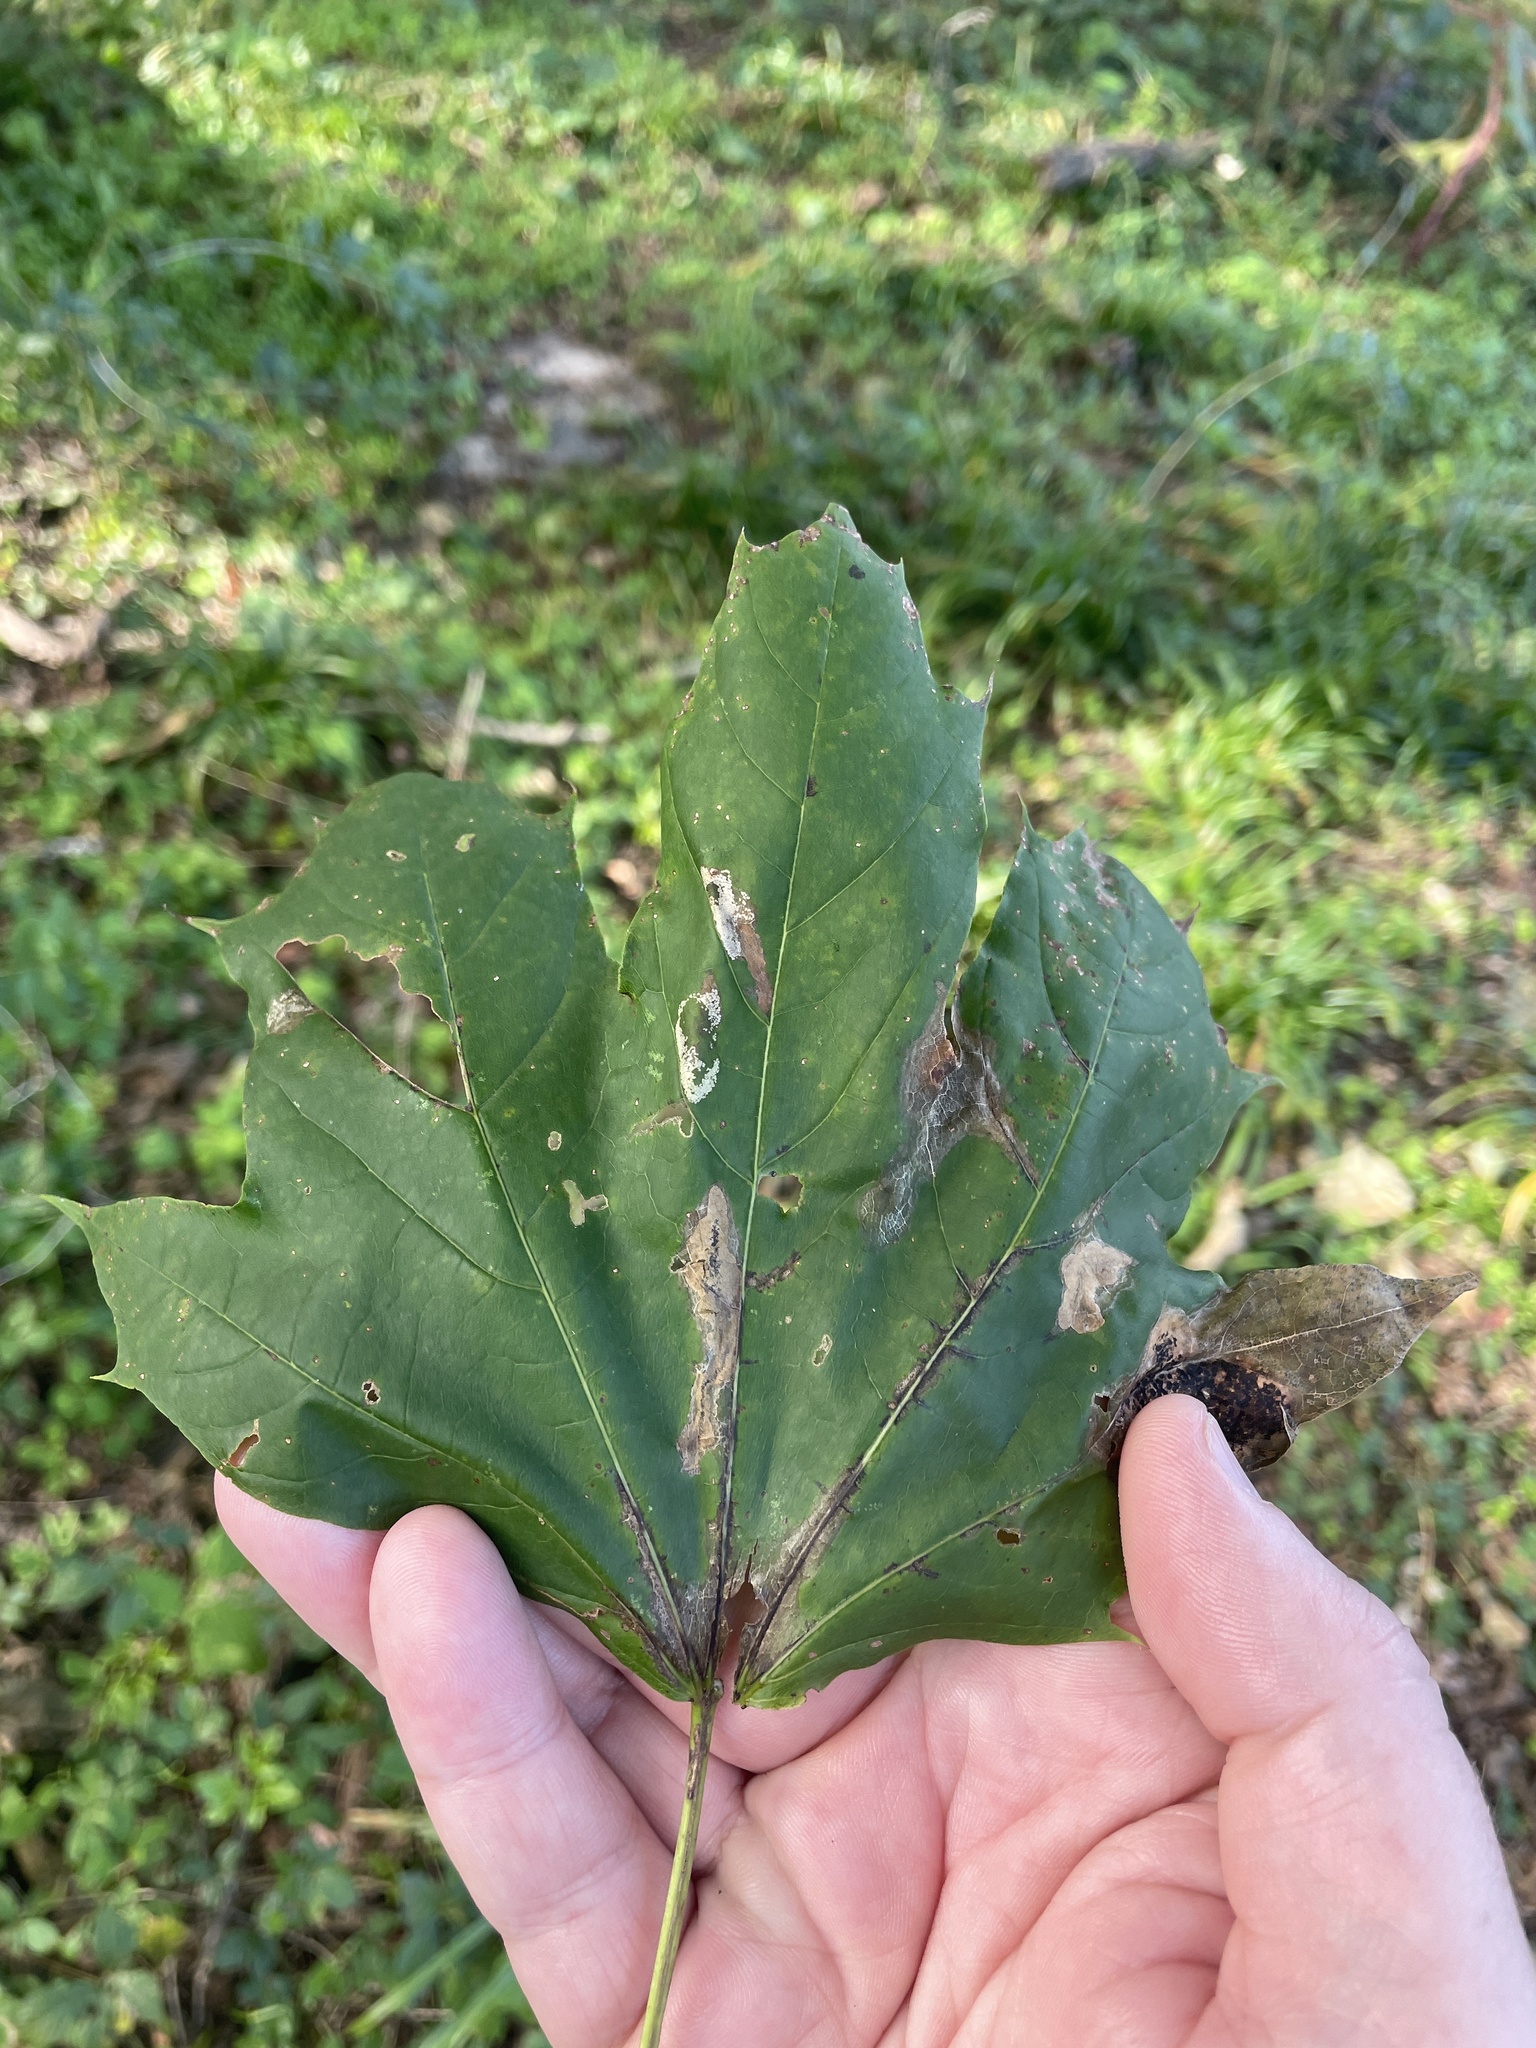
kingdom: Plantae
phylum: Tracheophyta
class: Magnoliopsida
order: Sapindales
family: Sapindaceae
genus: Acer
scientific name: Acer platanoides
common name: Norway maple
